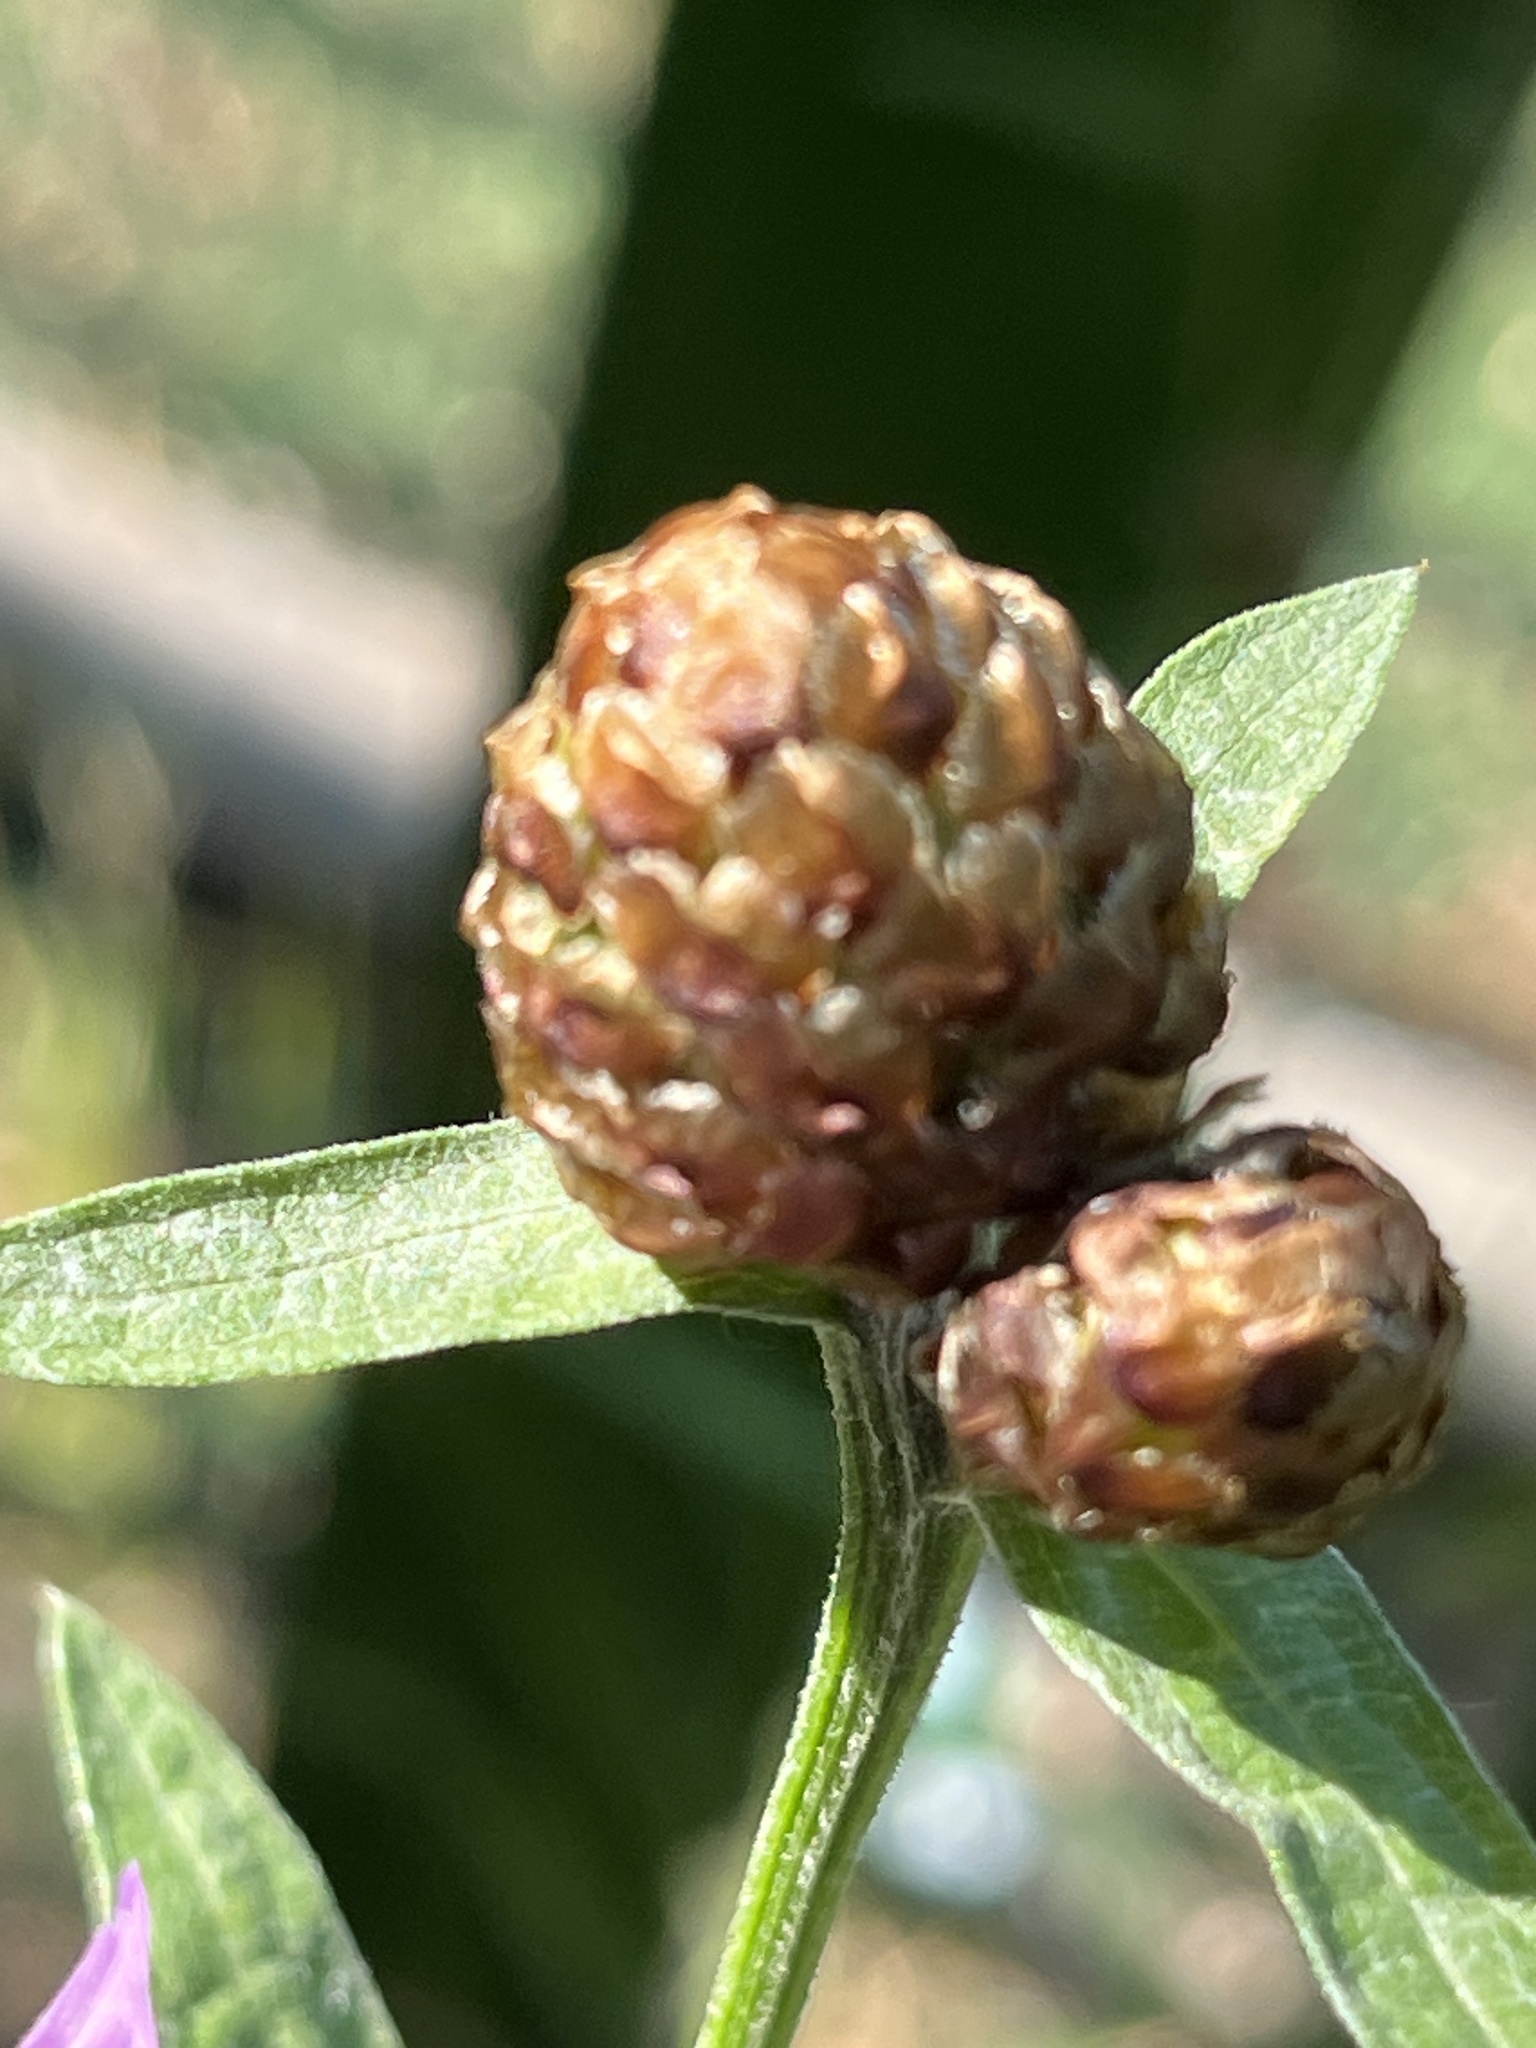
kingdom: Plantae
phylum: Tracheophyta
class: Magnoliopsida
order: Asterales
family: Asteraceae
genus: Centaurea
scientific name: Centaurea jacea
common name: Brown knapweed
